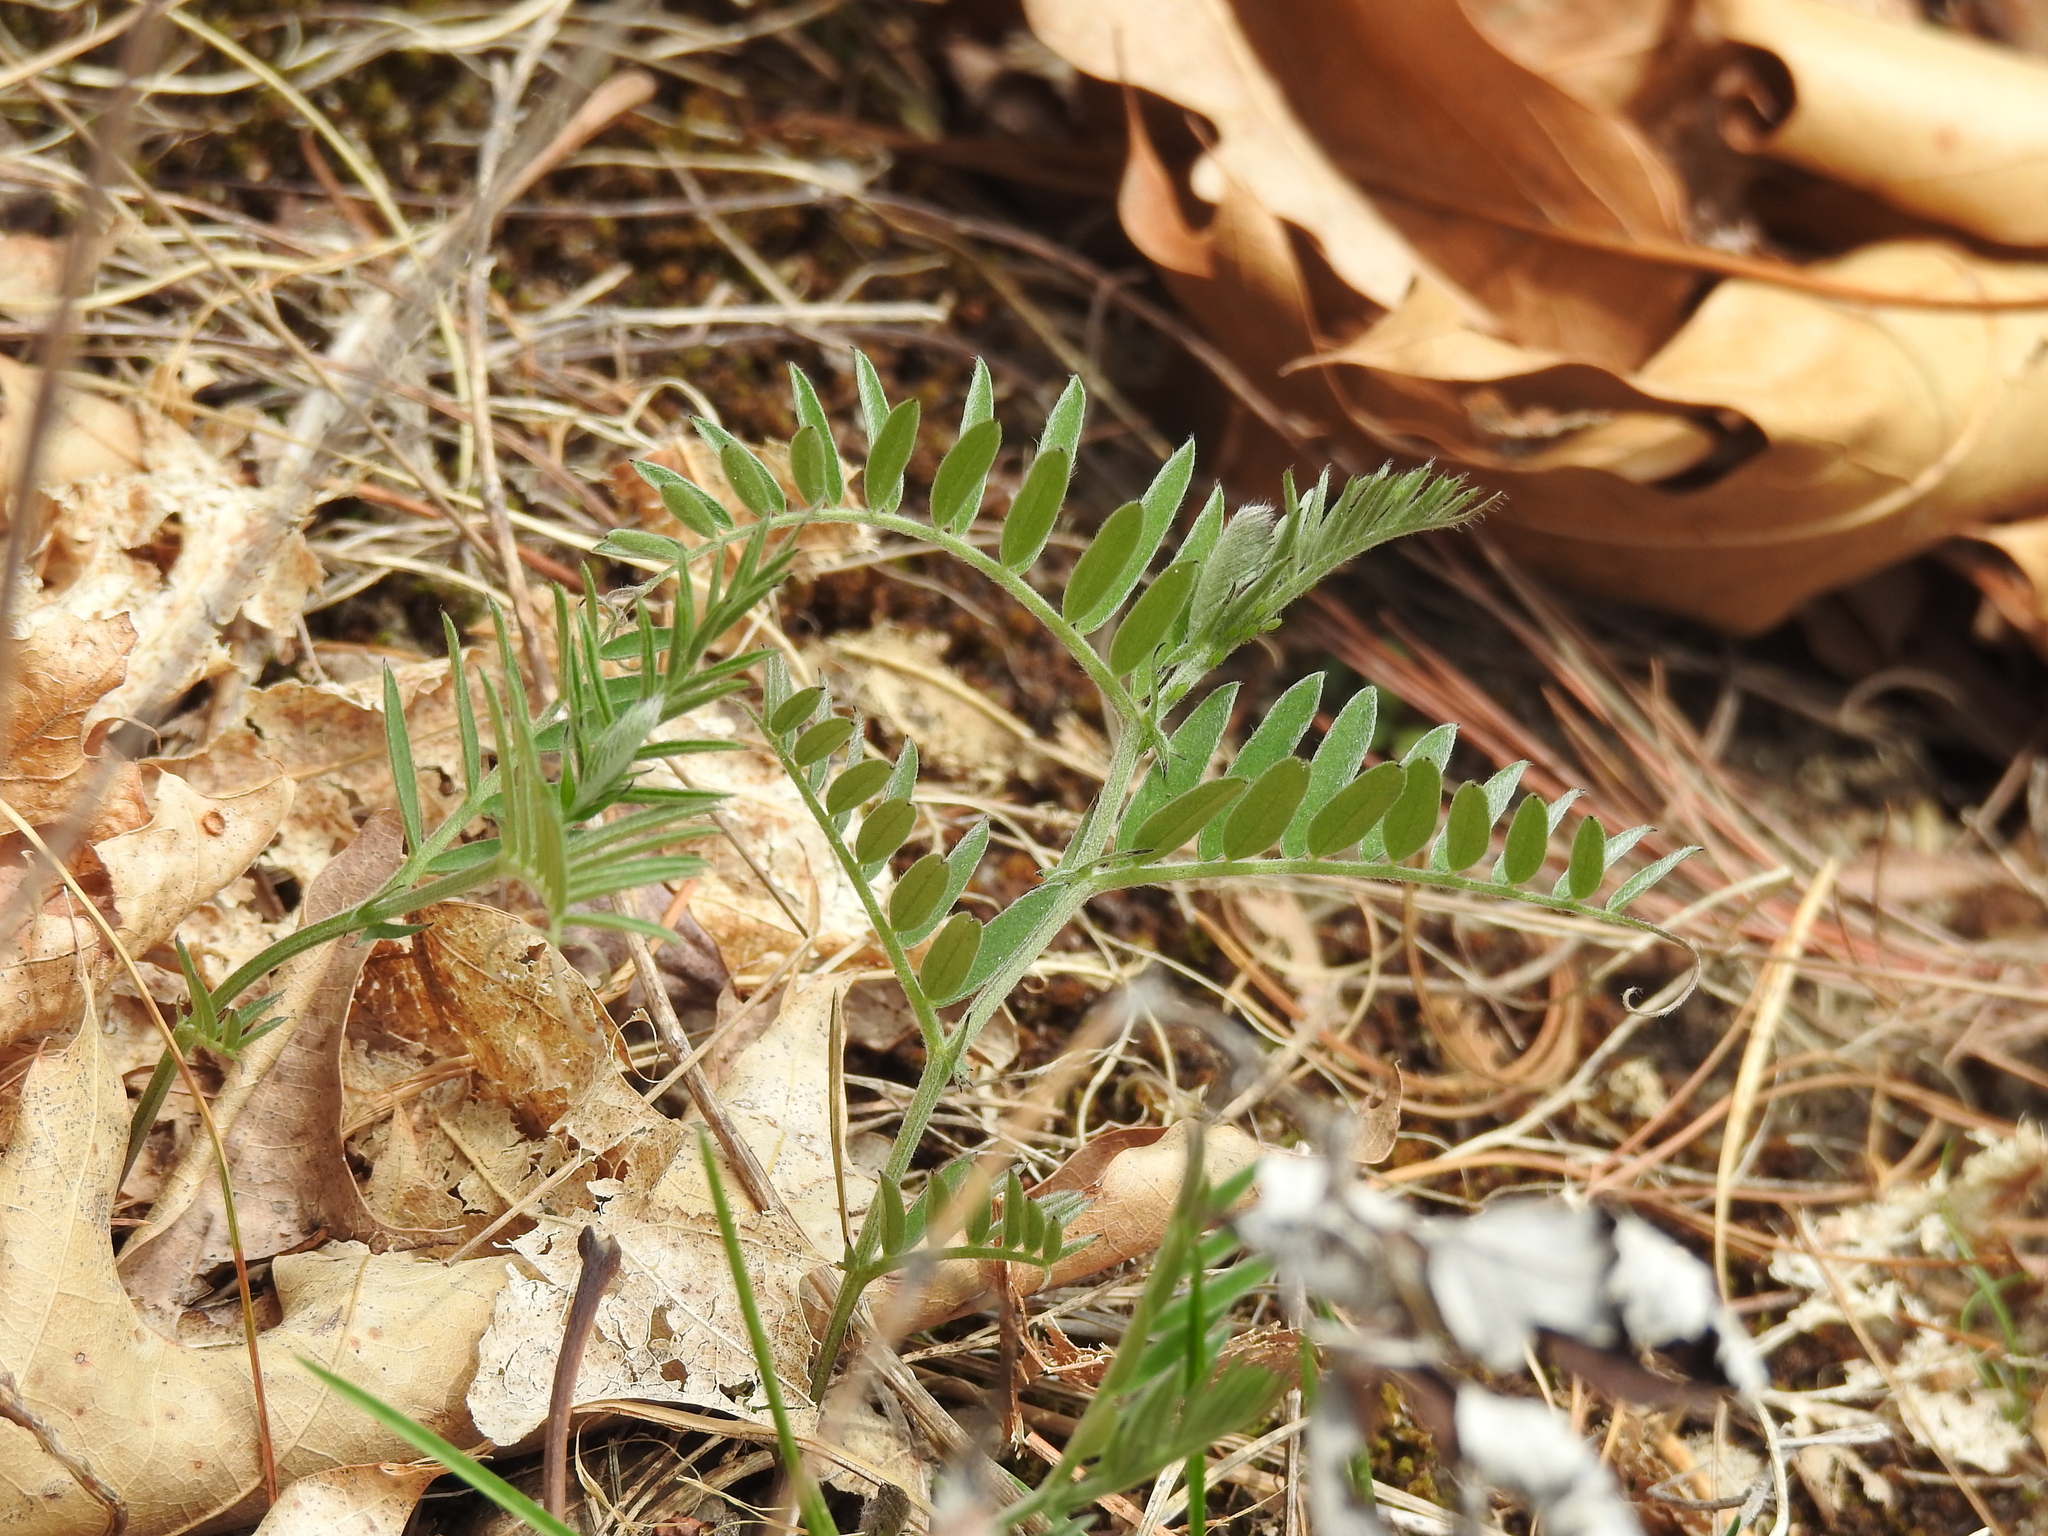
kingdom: Plantae
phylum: Tracheophyta
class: Magnoliopsida
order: Fabales
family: Fabaceae
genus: Vicia
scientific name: Vicia cracca
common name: Bird vetch
